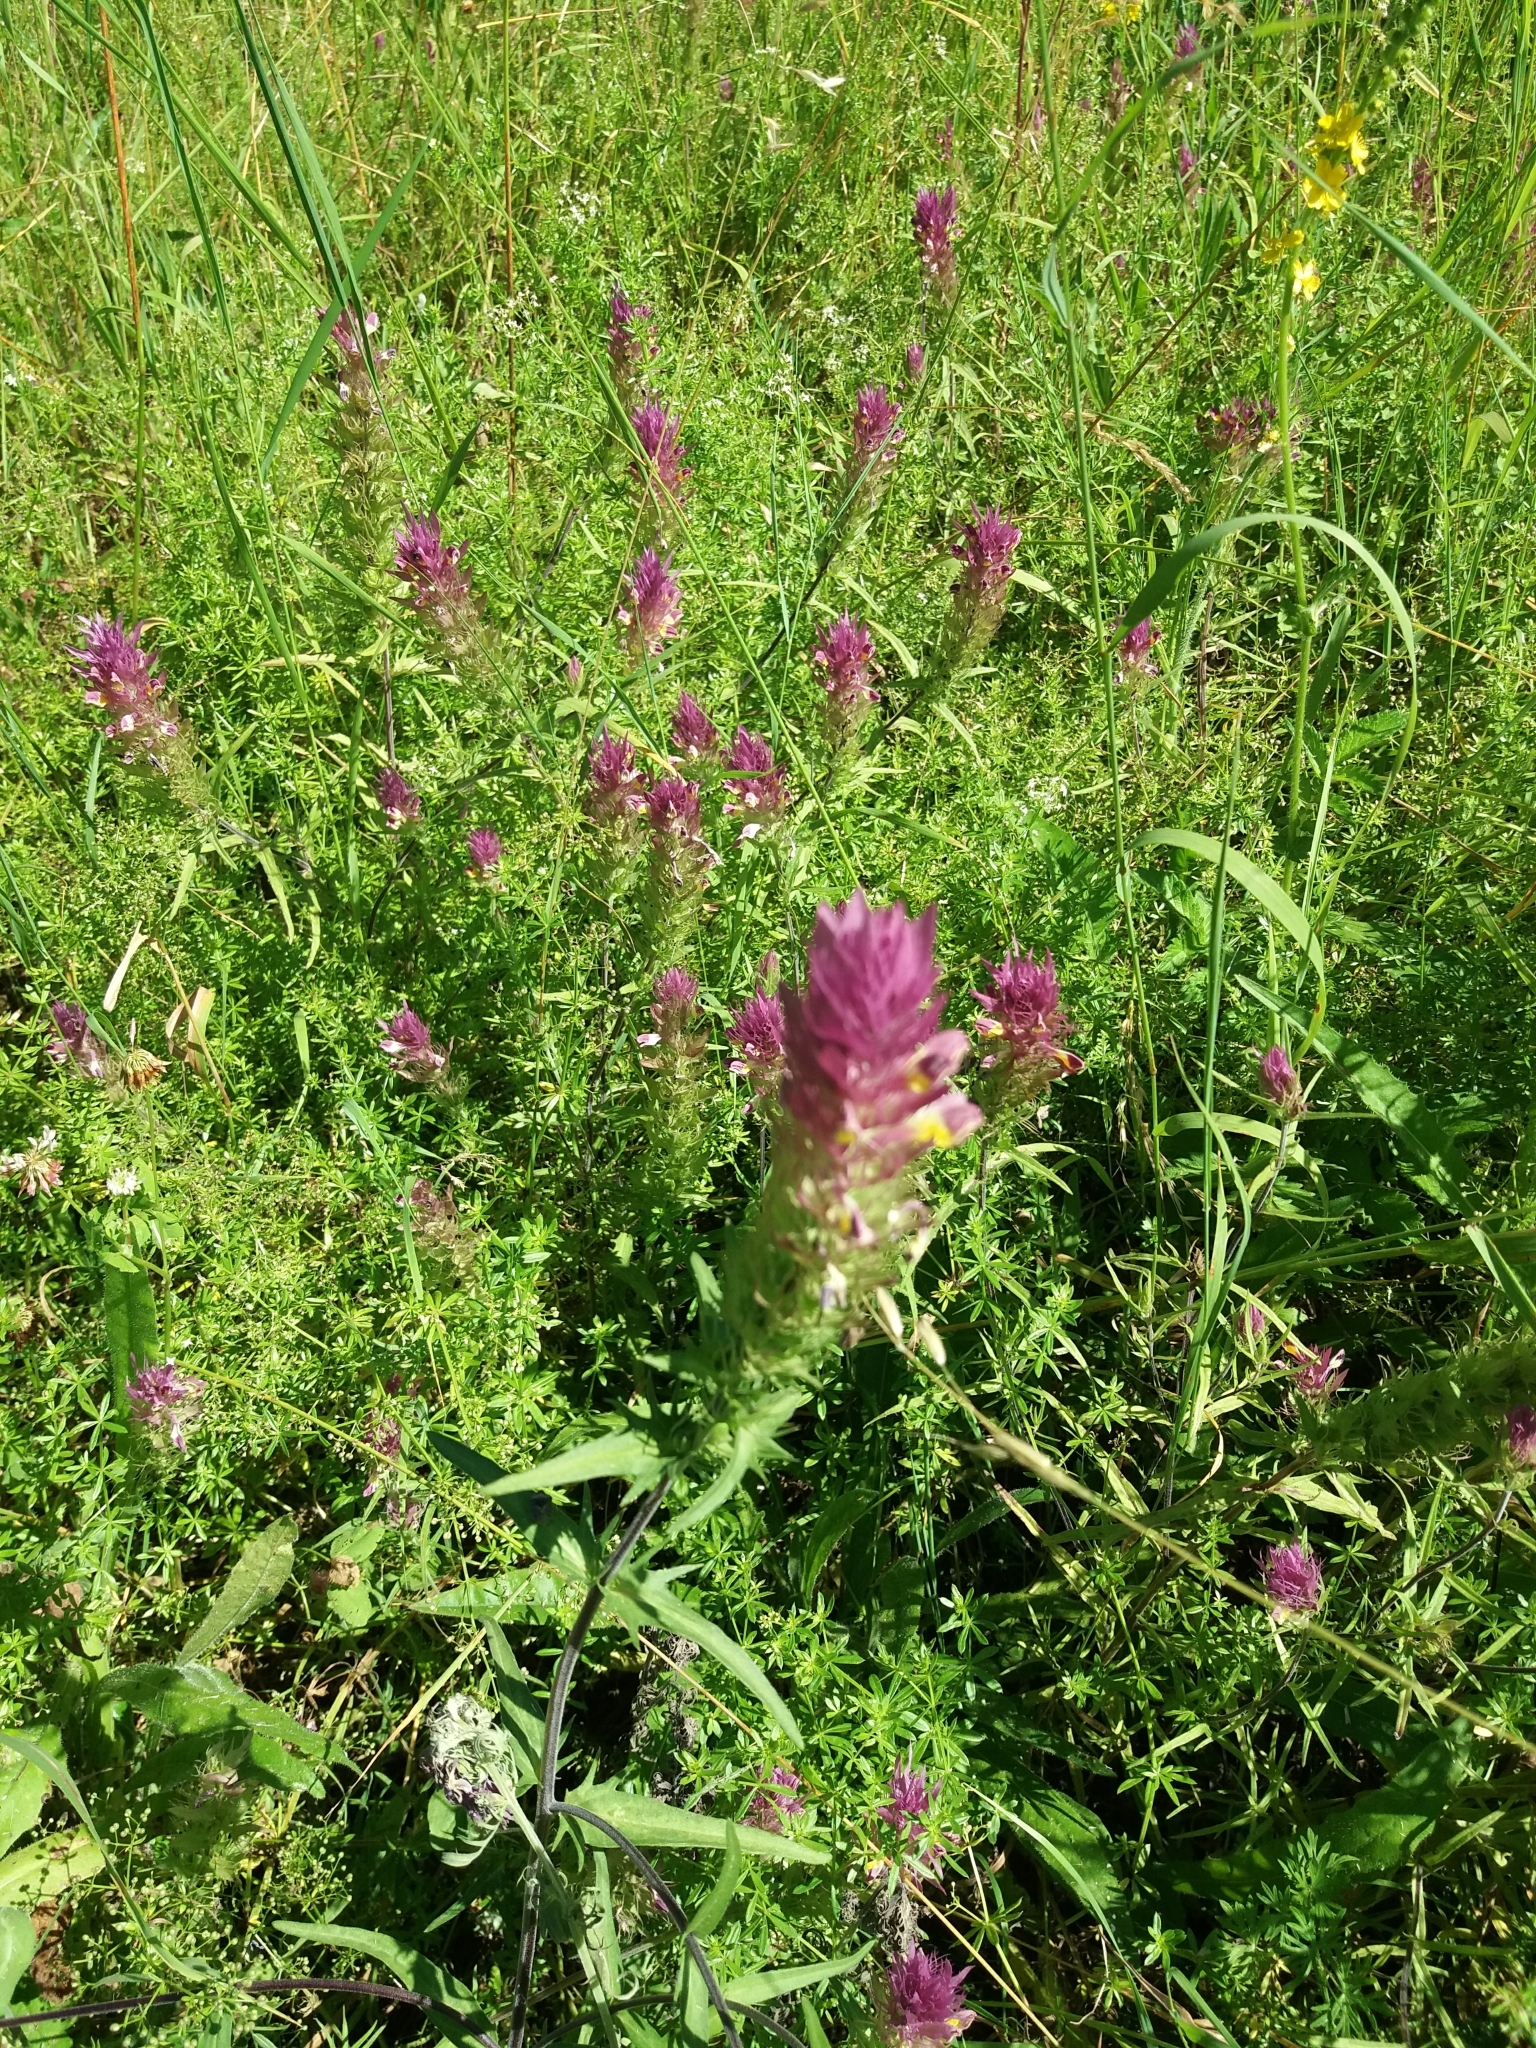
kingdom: Plantae
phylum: Tracheophyta
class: Magnoliopsida
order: Lamiales
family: Orobanchaceae
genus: Melampyrum
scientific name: Melampyrum arvense
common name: Field cow-wheat
